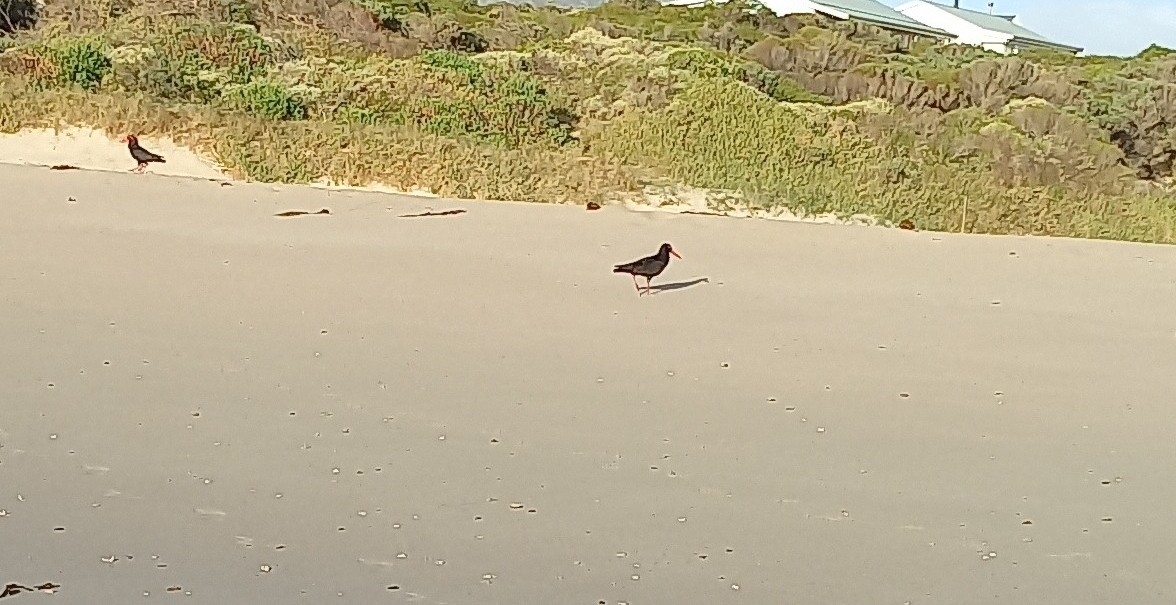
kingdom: Animalia
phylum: Chordata
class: Aves
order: Charadriiformes
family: Haematopodidae
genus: Haematopus
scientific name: Haematopus moquini
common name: African oystercatcher
